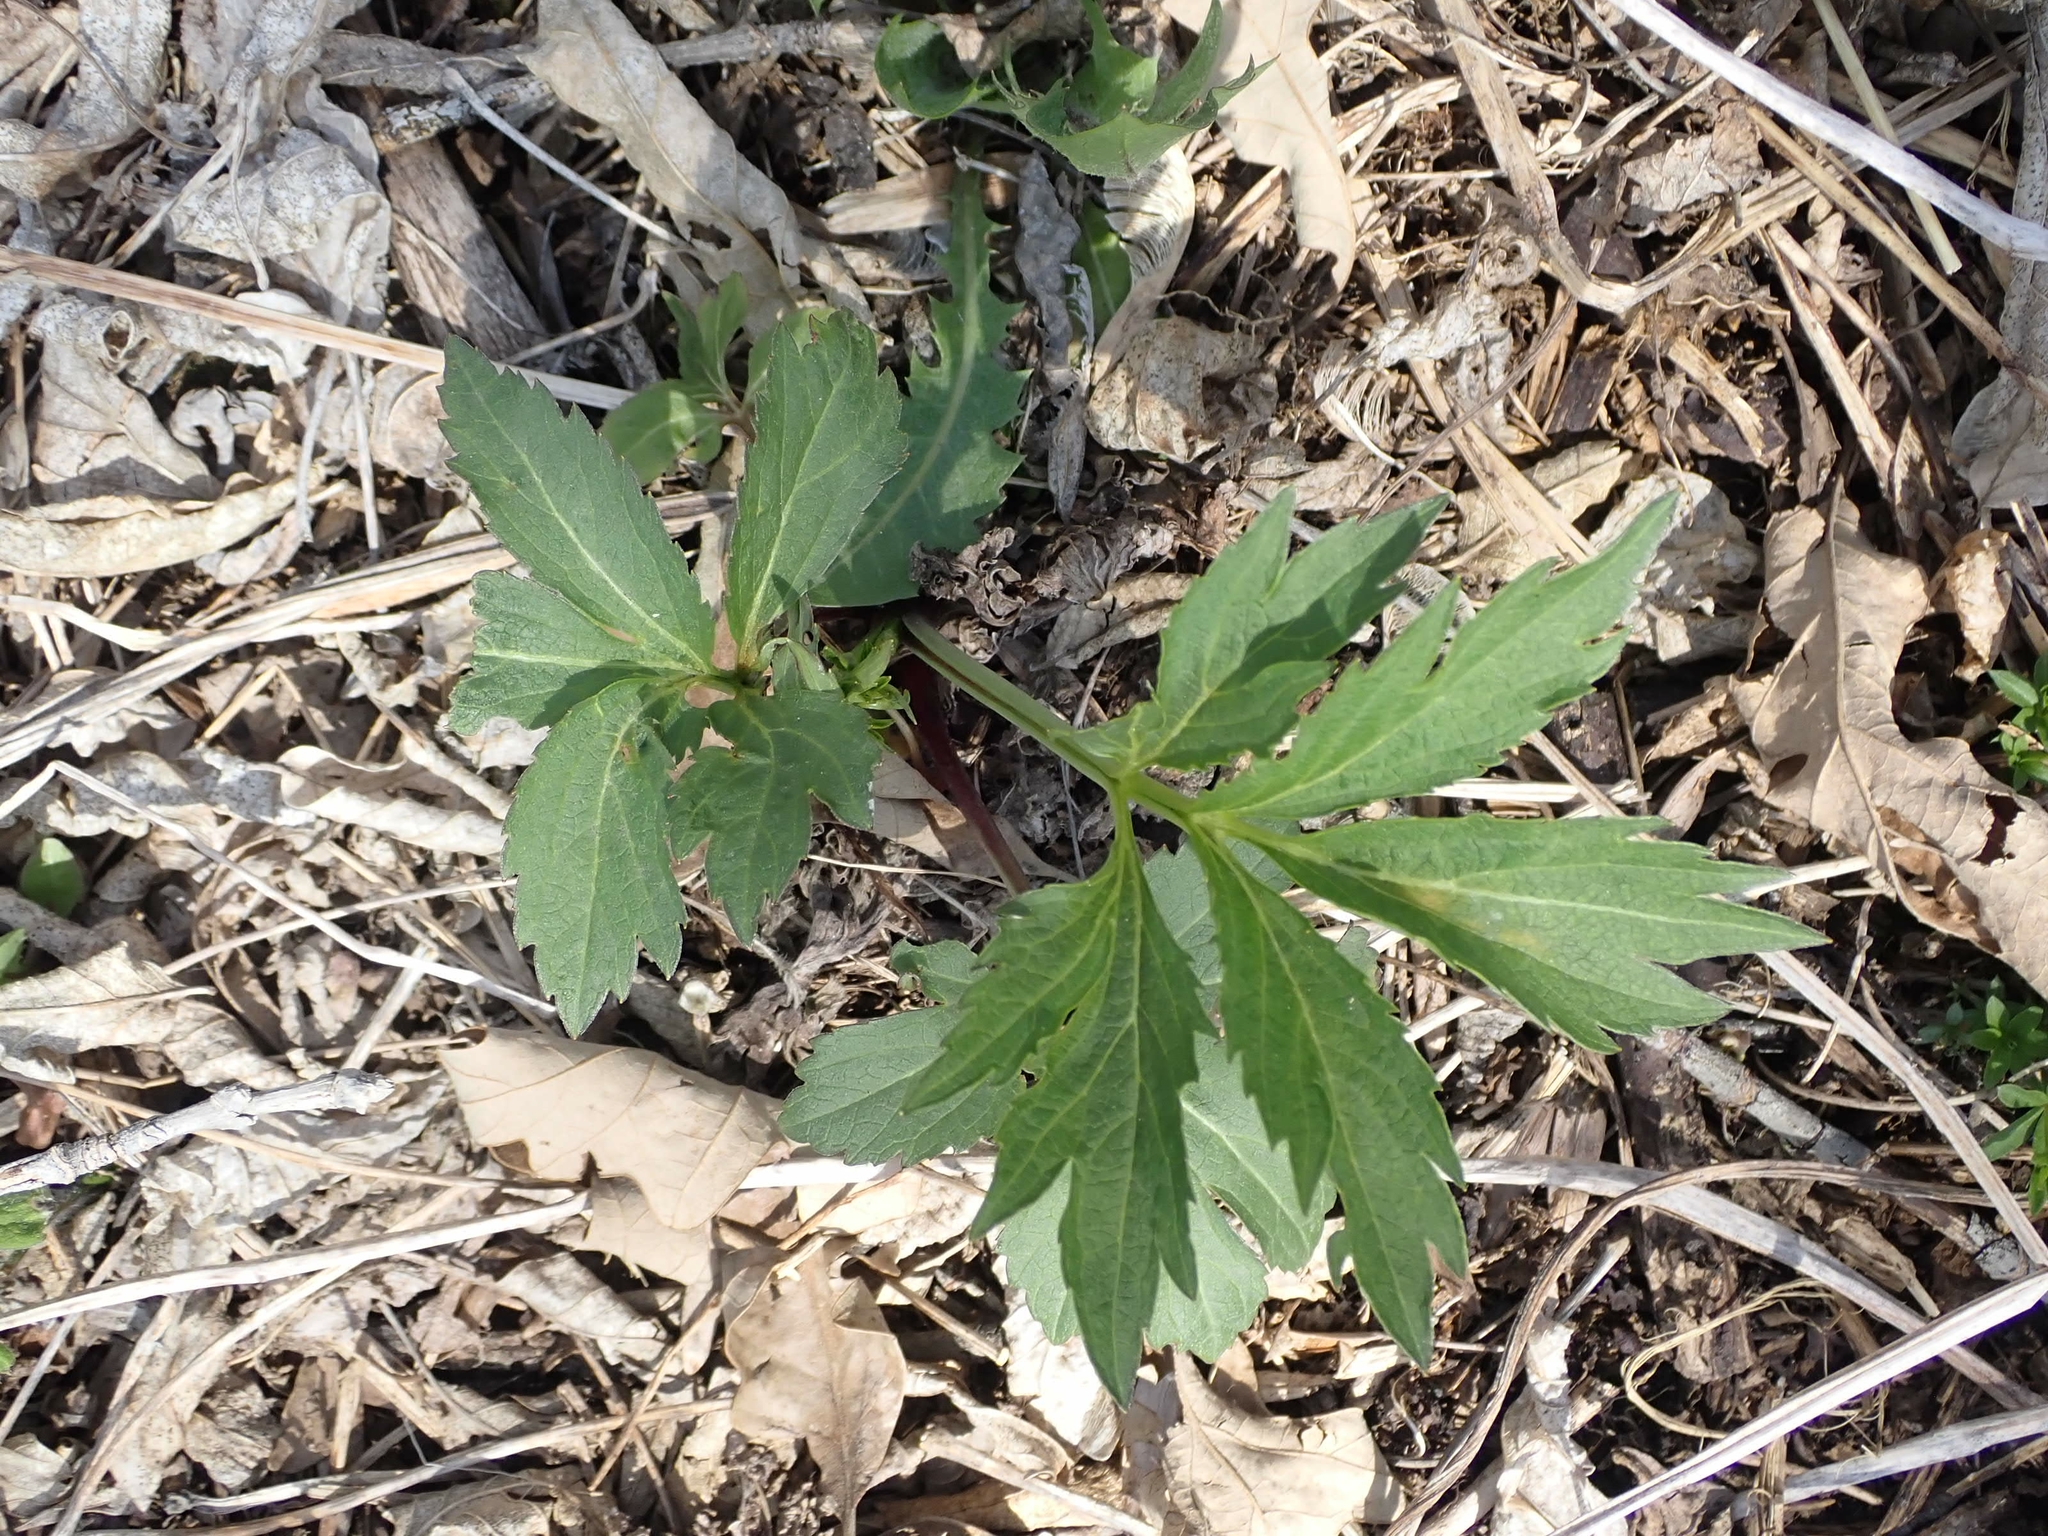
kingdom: Plantae
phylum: Tracheophyta
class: Magnoliopsida
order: Asterales
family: Asteraceae
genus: Rudbeckia
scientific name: Rudbeckia laciniata
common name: Coneflower
